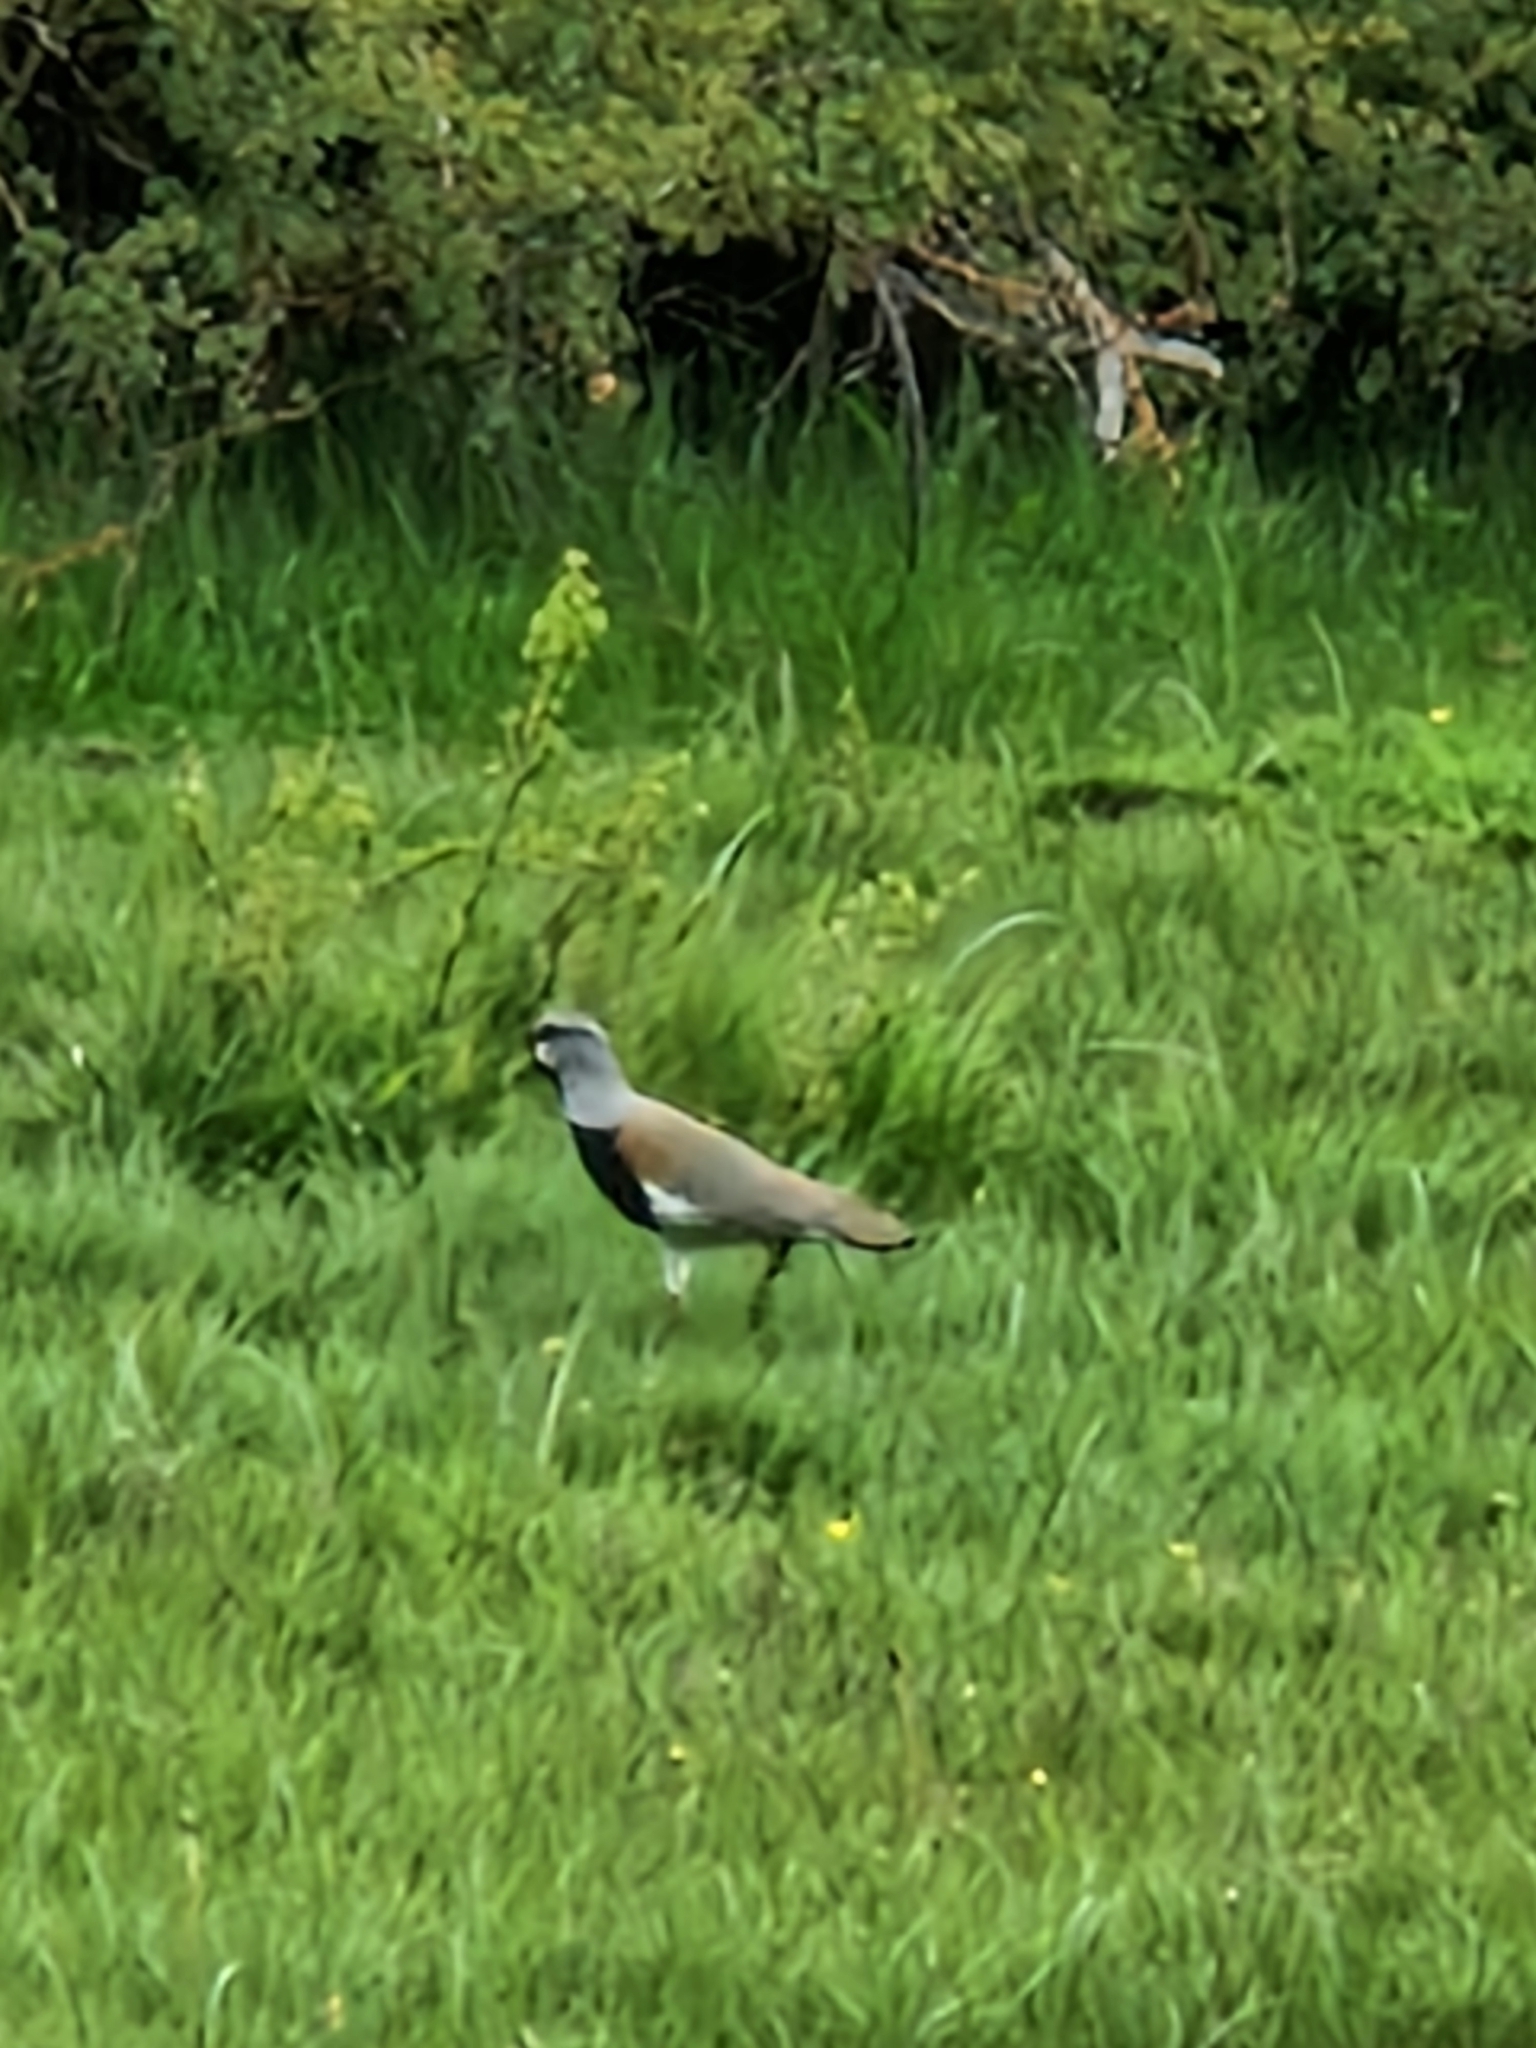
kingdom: Animalia
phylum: Chordata
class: Aves
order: Charadriiformes
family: Charadriidae
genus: Vanellus
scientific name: Vanellus chilensis
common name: Southern lapwing
